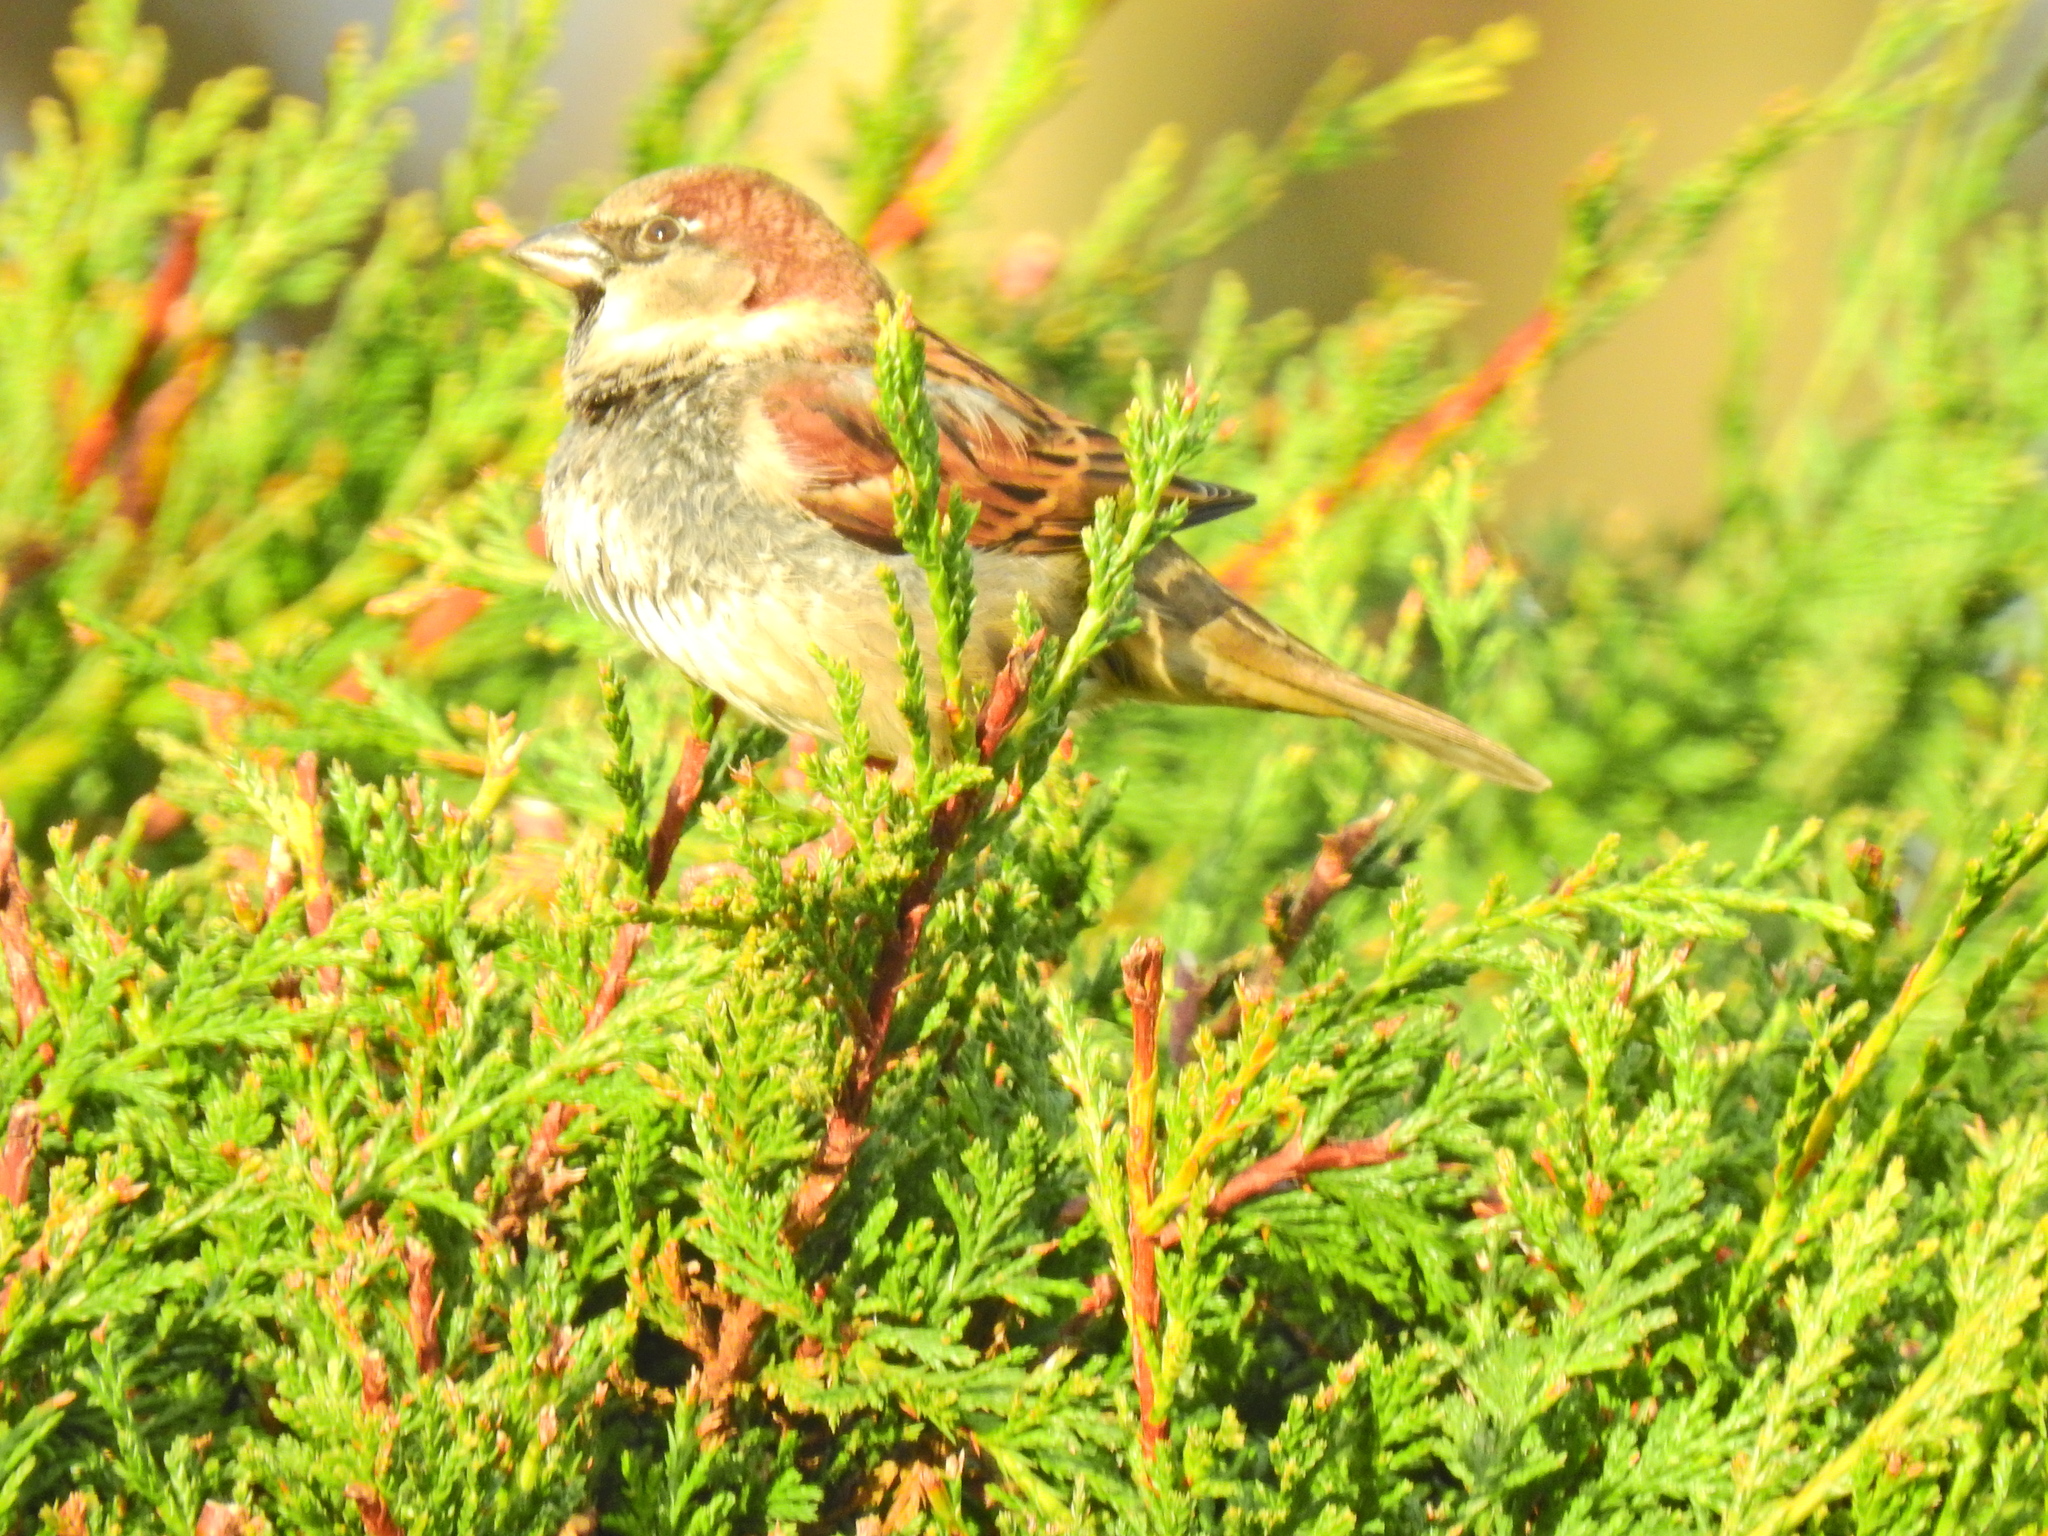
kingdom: Animalia
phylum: Chordata
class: Aves
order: Passeriformes
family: Passeridae
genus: Passer
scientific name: Passer domesticus
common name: House sparrow
